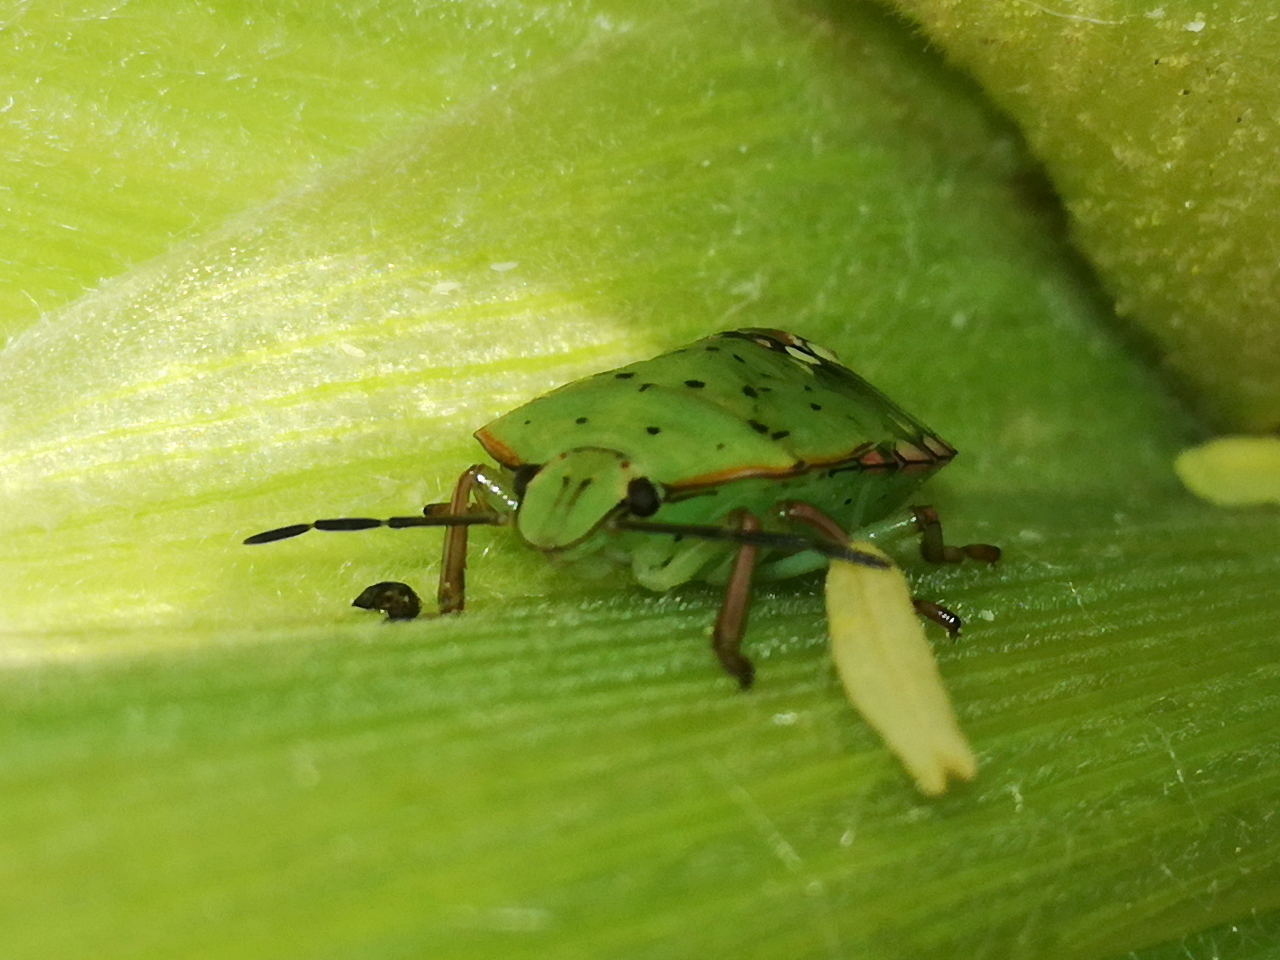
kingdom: Animalia
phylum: Arthropoda
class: Insecta
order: Hemiptera
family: Pentatomidae
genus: Nezara
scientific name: Nezara viridula
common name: Southern green stink bug
